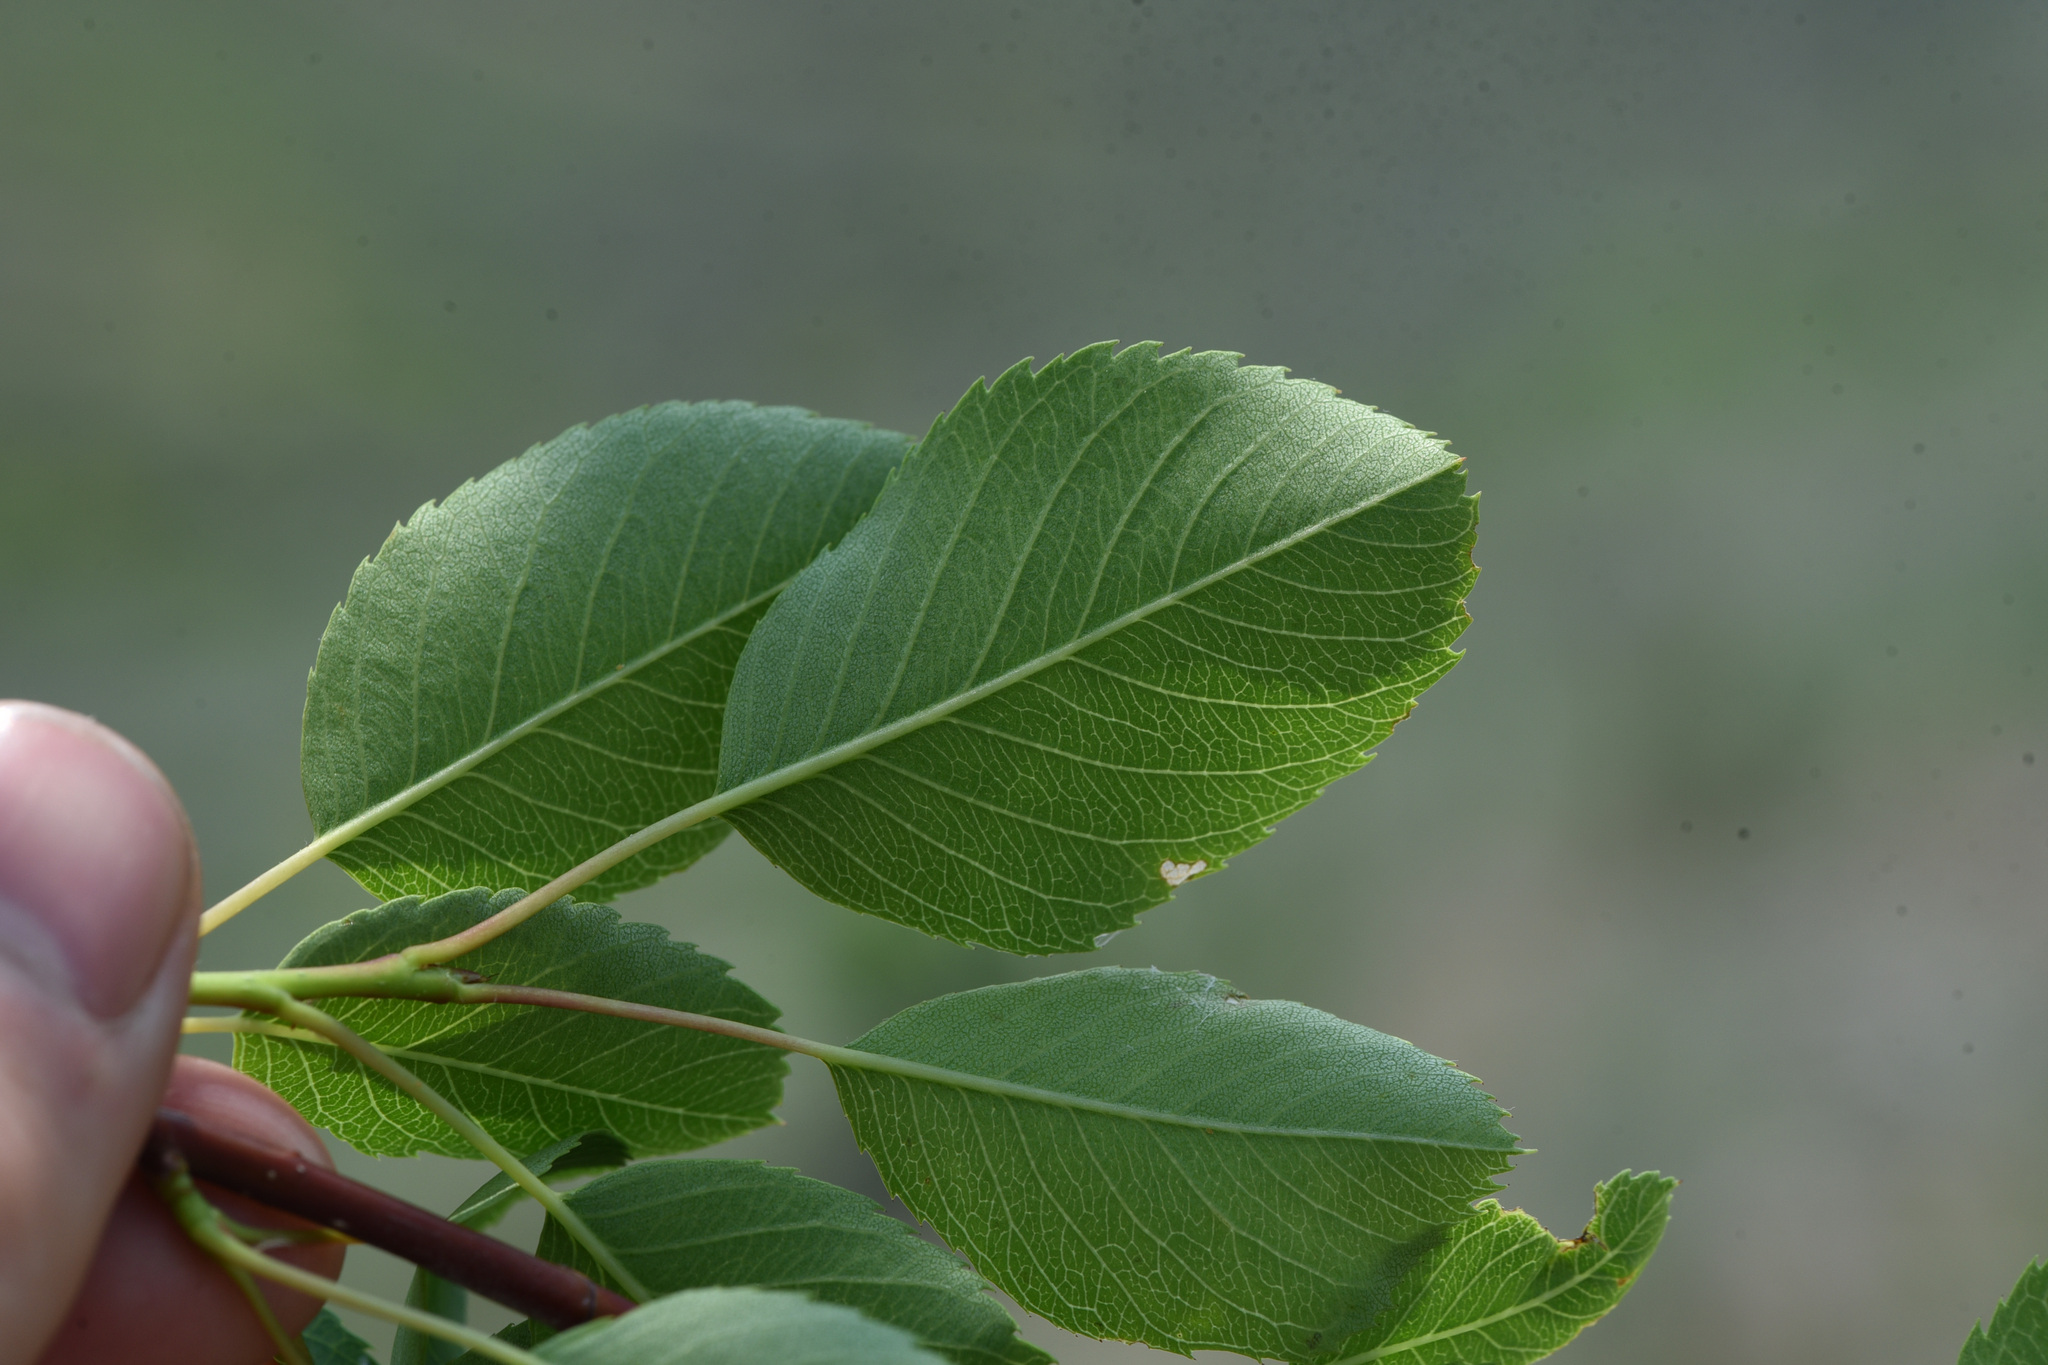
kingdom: Plantae
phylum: Tracheophyta
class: Magnoliopsida
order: Rosales
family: Rosaceae
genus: Amelanchier
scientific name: Amelanchier alnifolia
